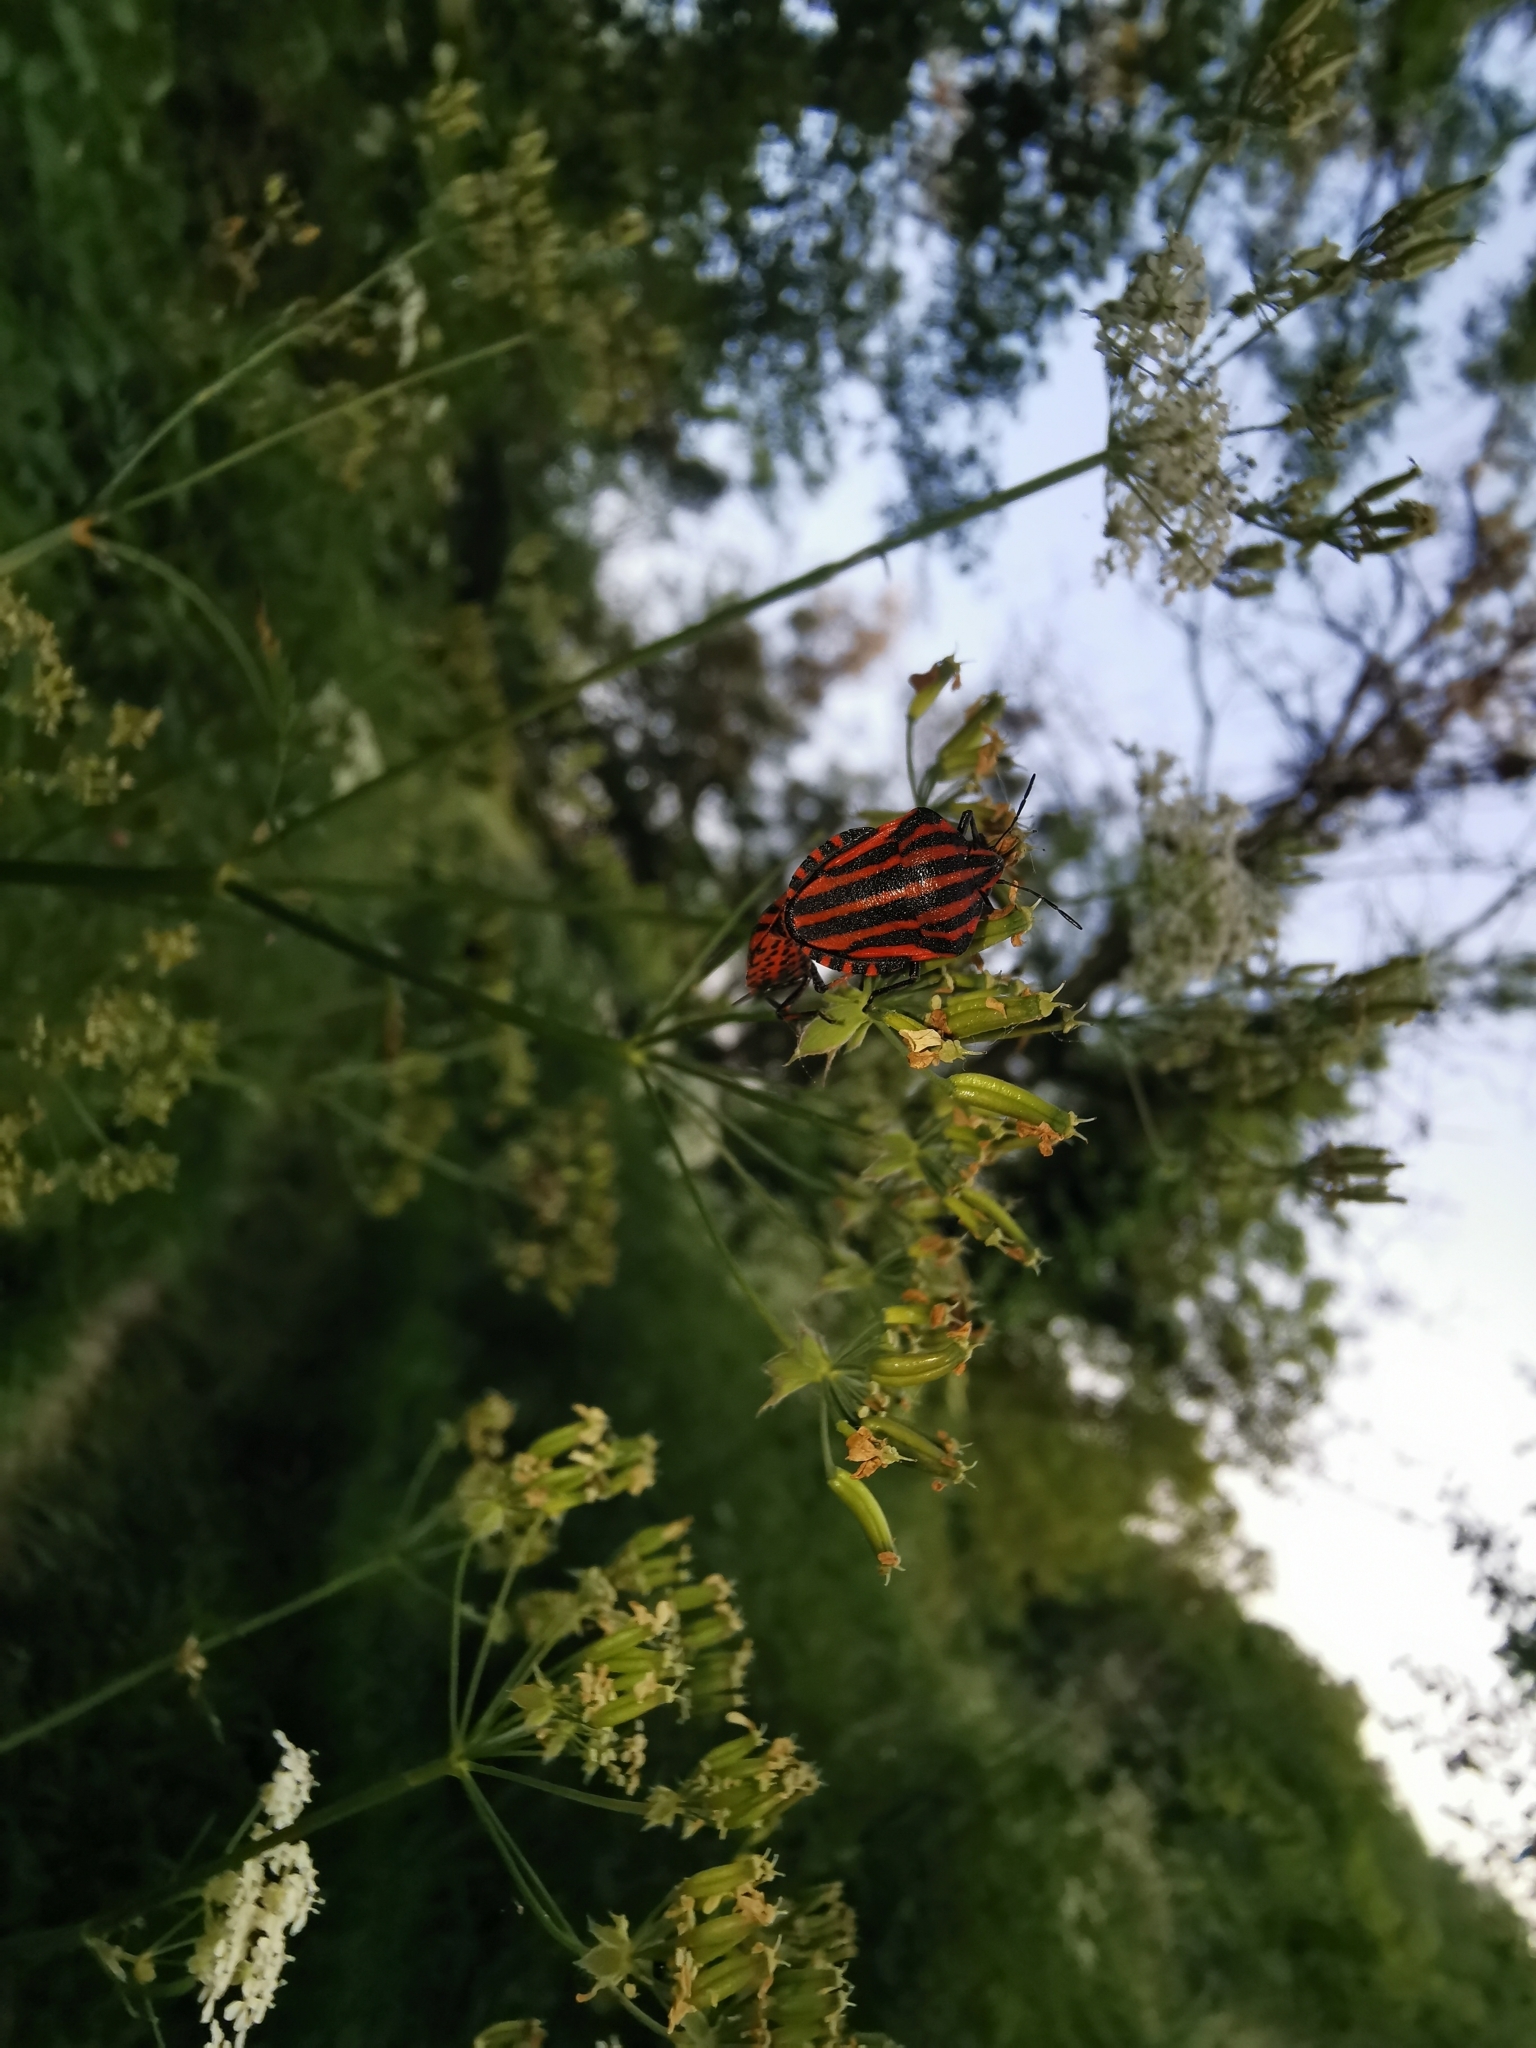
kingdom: Animalia
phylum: Arthropoda
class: Insecta
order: Hemiptera
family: Pentatomidae
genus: Graphosoma
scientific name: Graphosoma italicum
